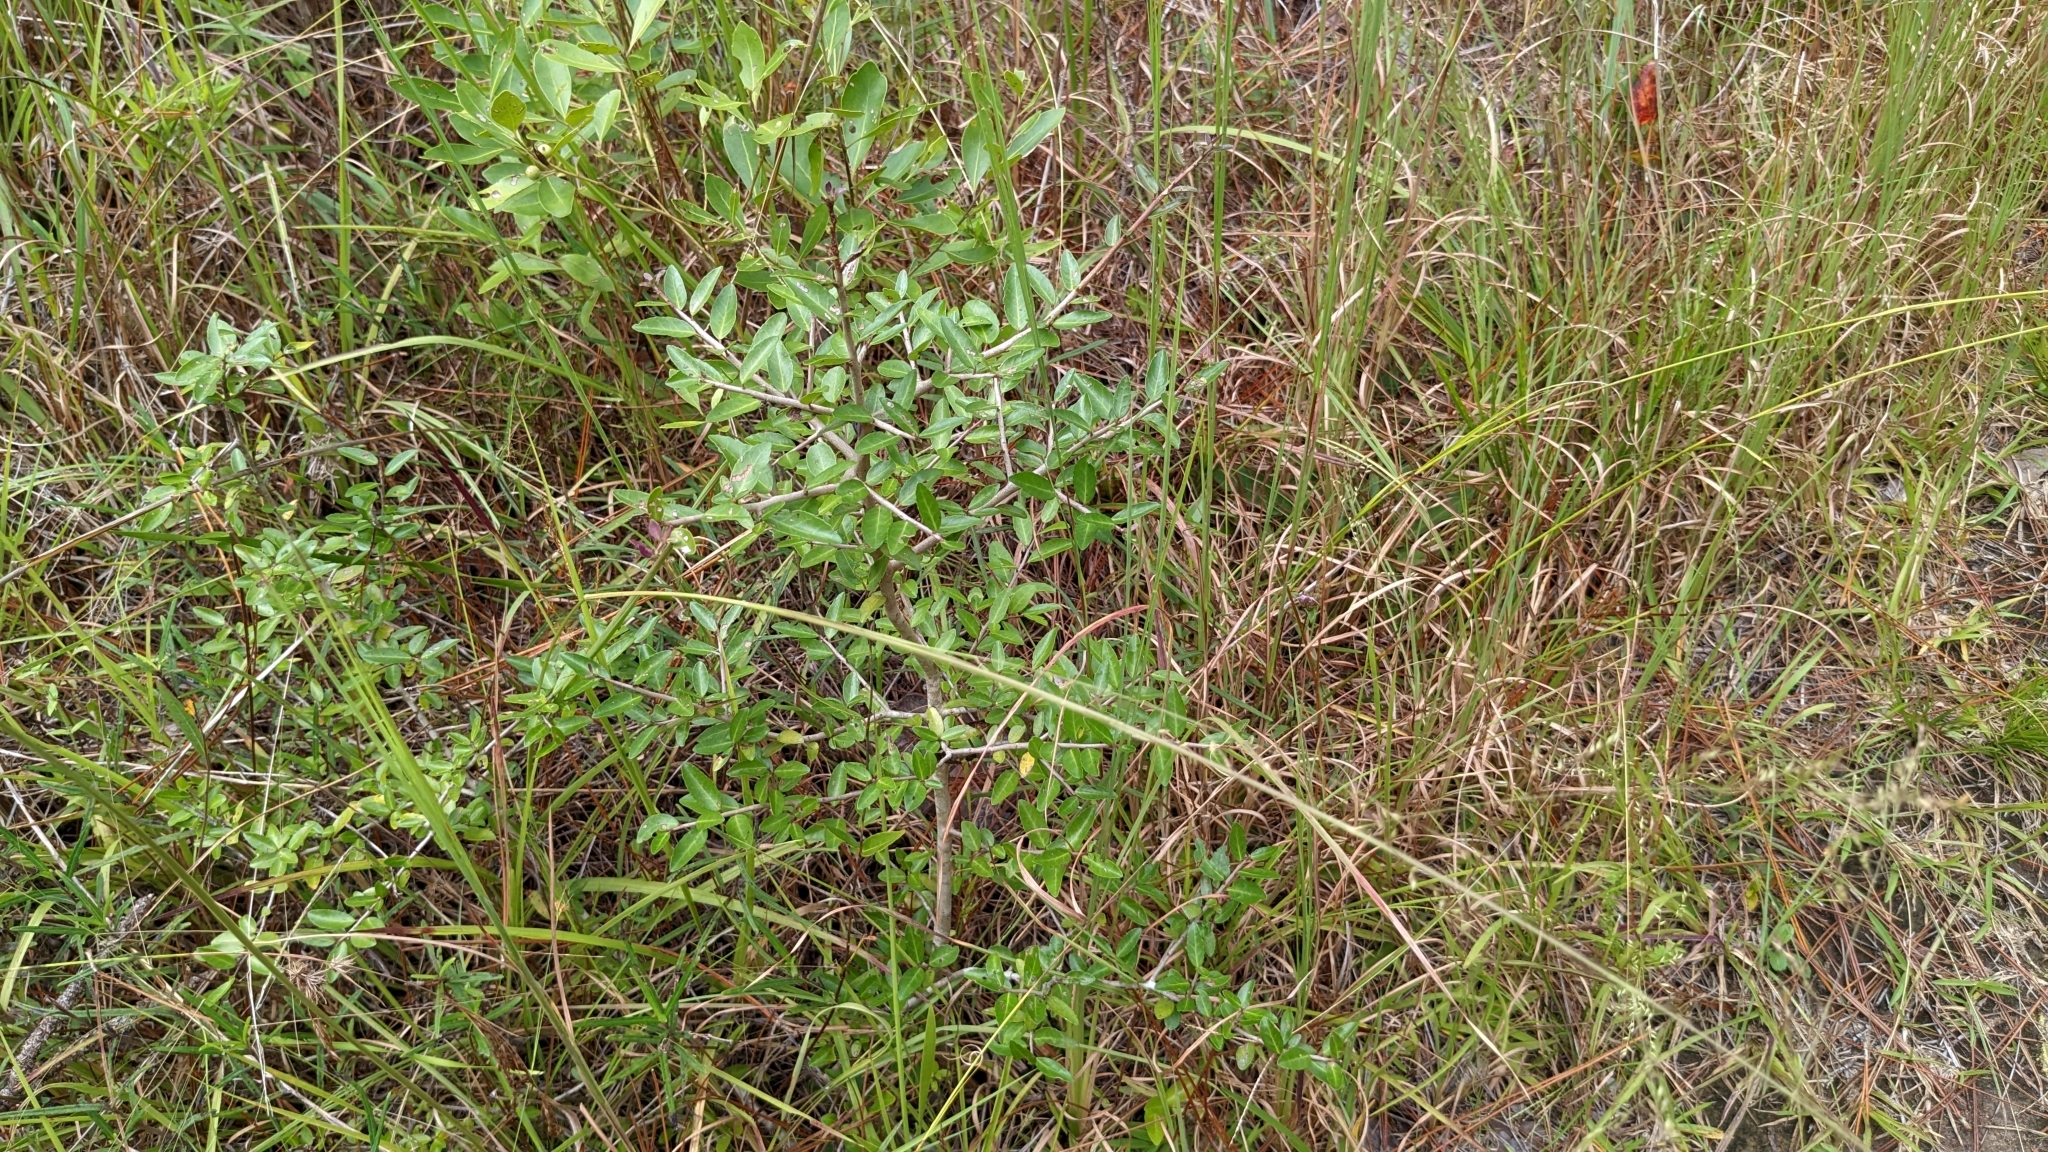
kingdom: Plantae
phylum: Tracheophyta
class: Magnoliopsida
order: Aquifoliales
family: Aquifoliaceae
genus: Ilex
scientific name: Ilex vomitoria
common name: Yaupon holly
